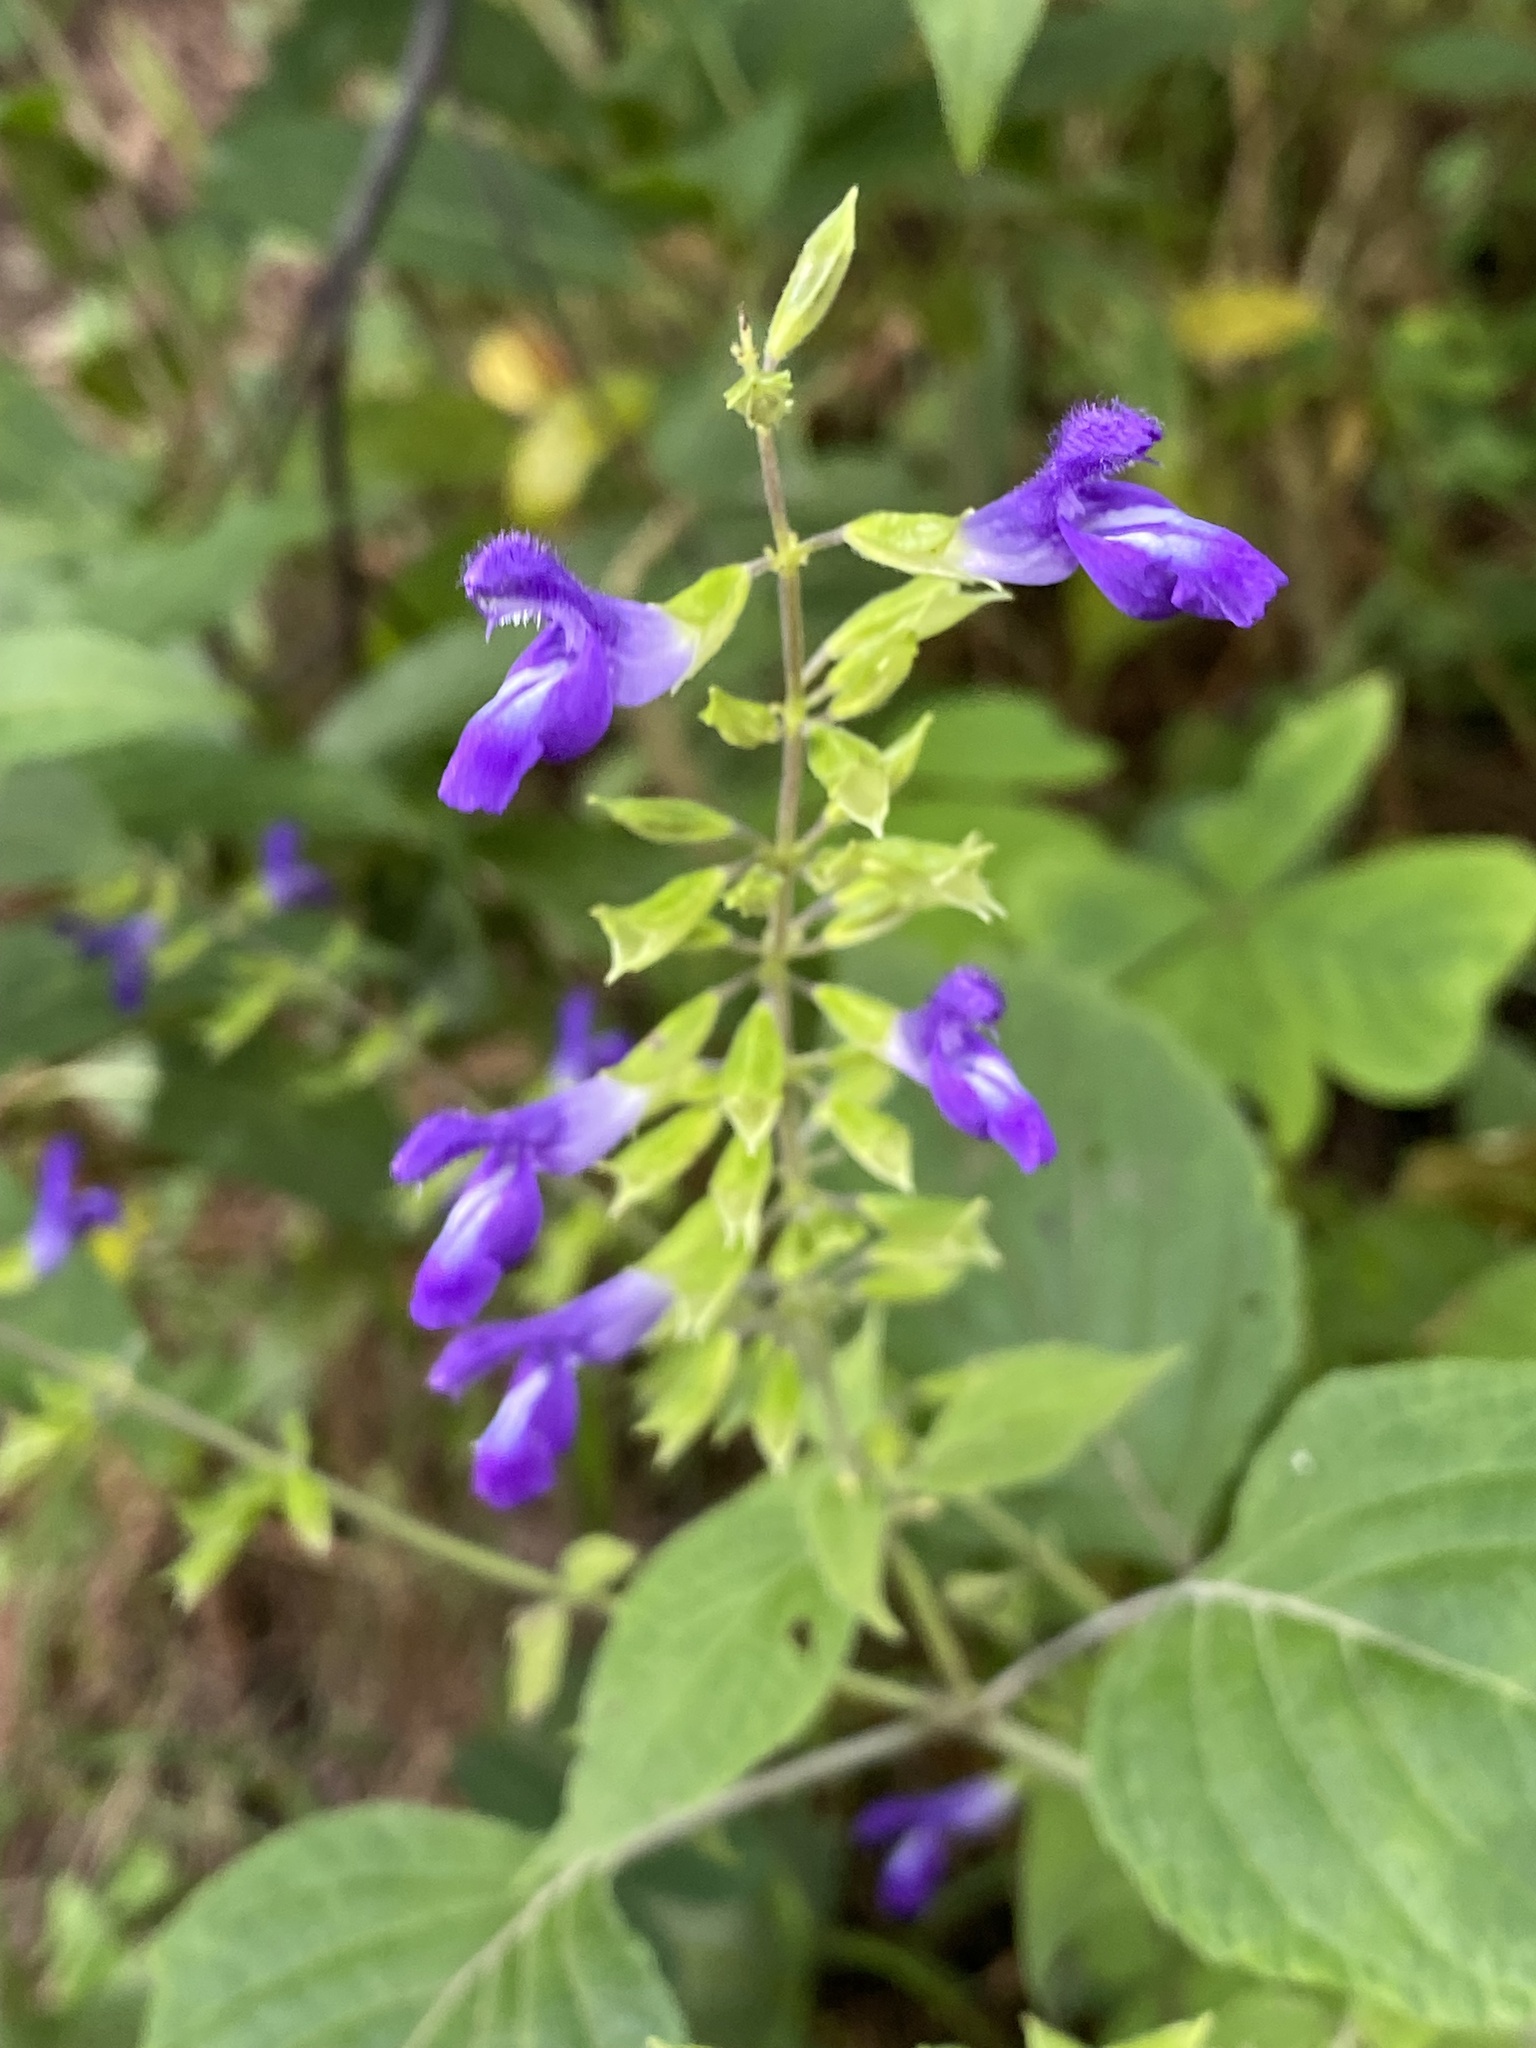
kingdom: Plantae
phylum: Tracheophyta
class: Magnoliopsida
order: Lamiales
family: Lamiaceae
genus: Salvia
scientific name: Salvia calderoniae
